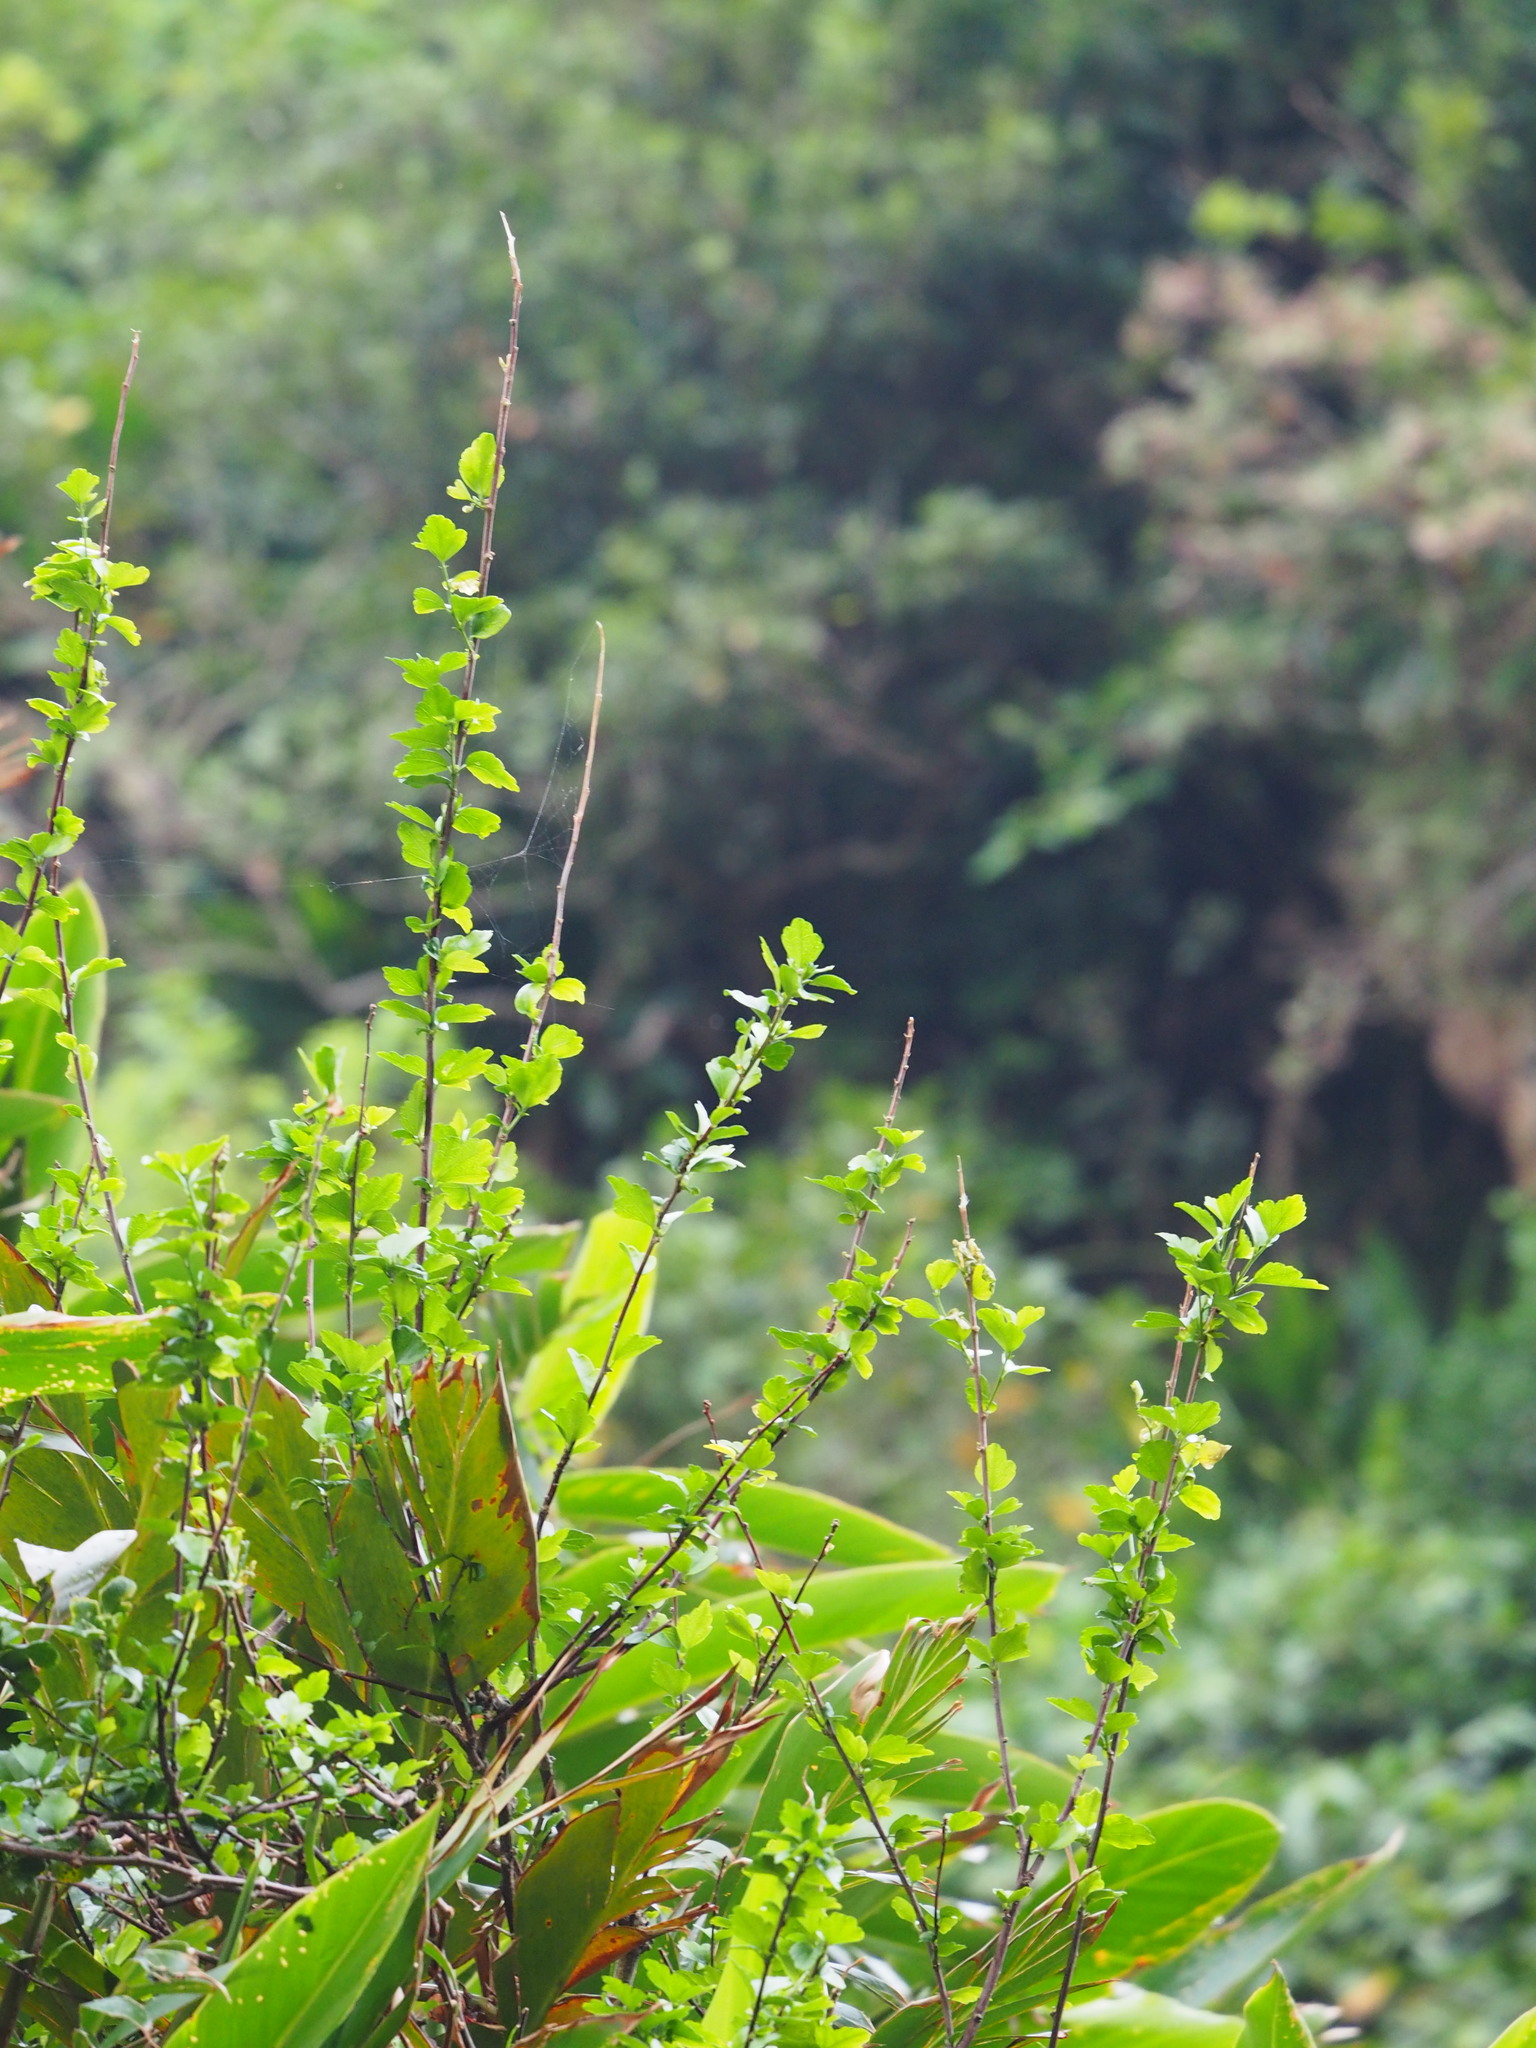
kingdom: Plantae
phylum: Tracheophyta
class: Magnoliopsida
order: Malvales
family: Malvaceae
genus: Hibiscus
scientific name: Hibiscus syriacus
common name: Syrian ketmia
